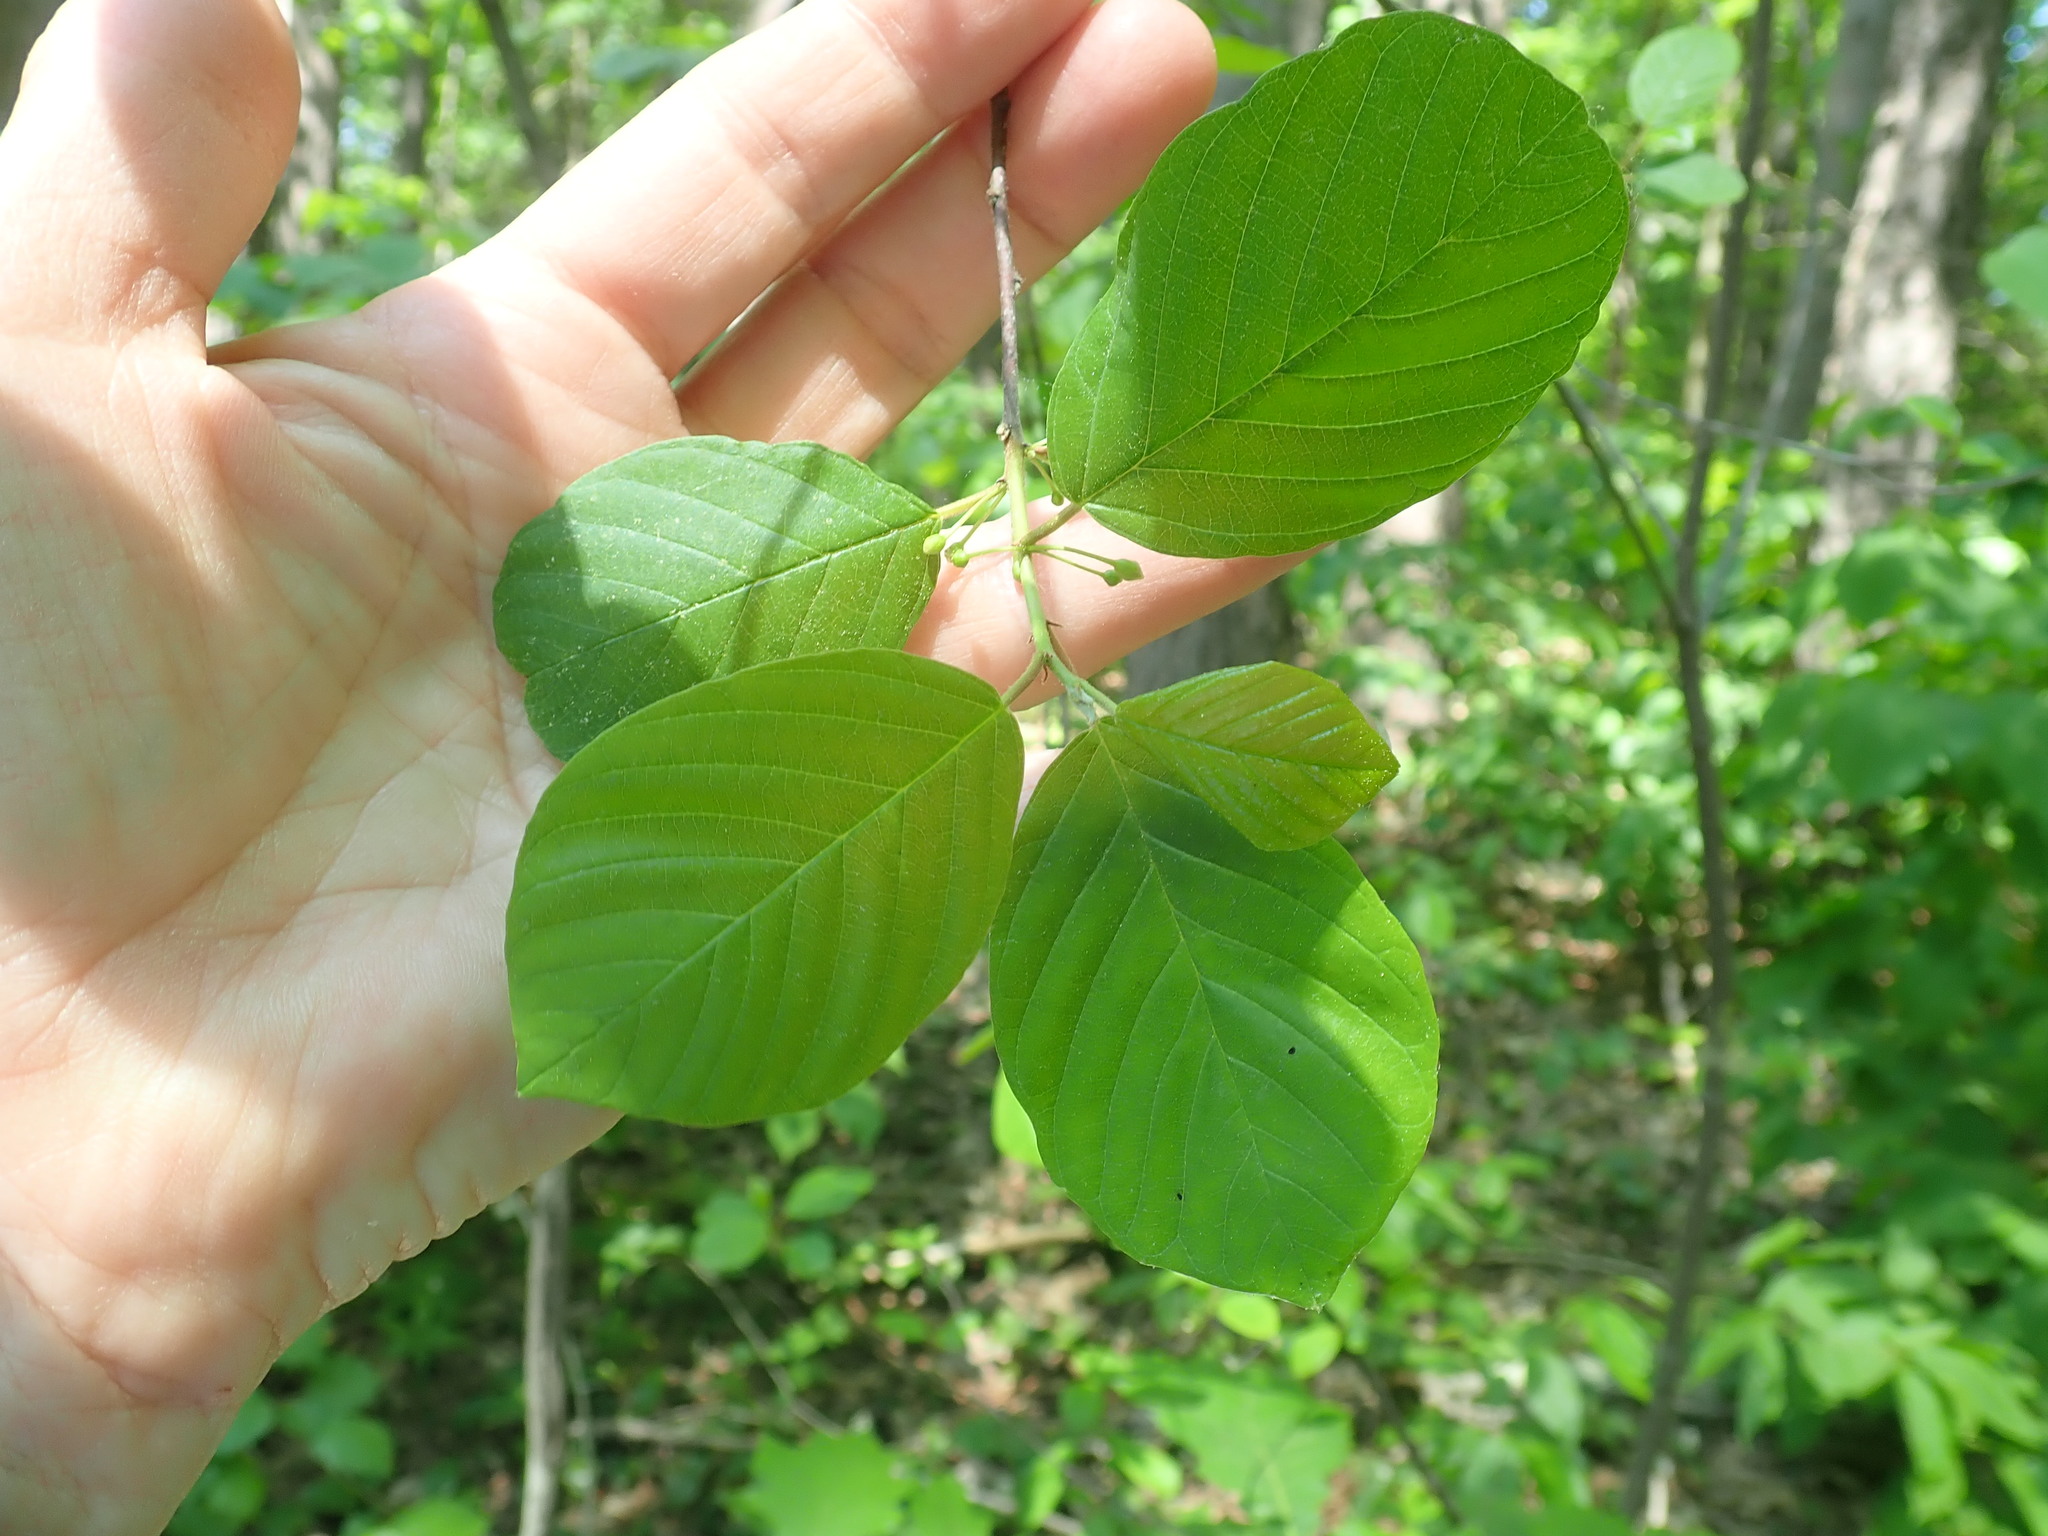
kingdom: Plantae
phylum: Tracheophyta
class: Magnoliopsida
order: Rosales
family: Rhamnaceae
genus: Frangula
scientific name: Frangula alnus
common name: Alder buckthorn
